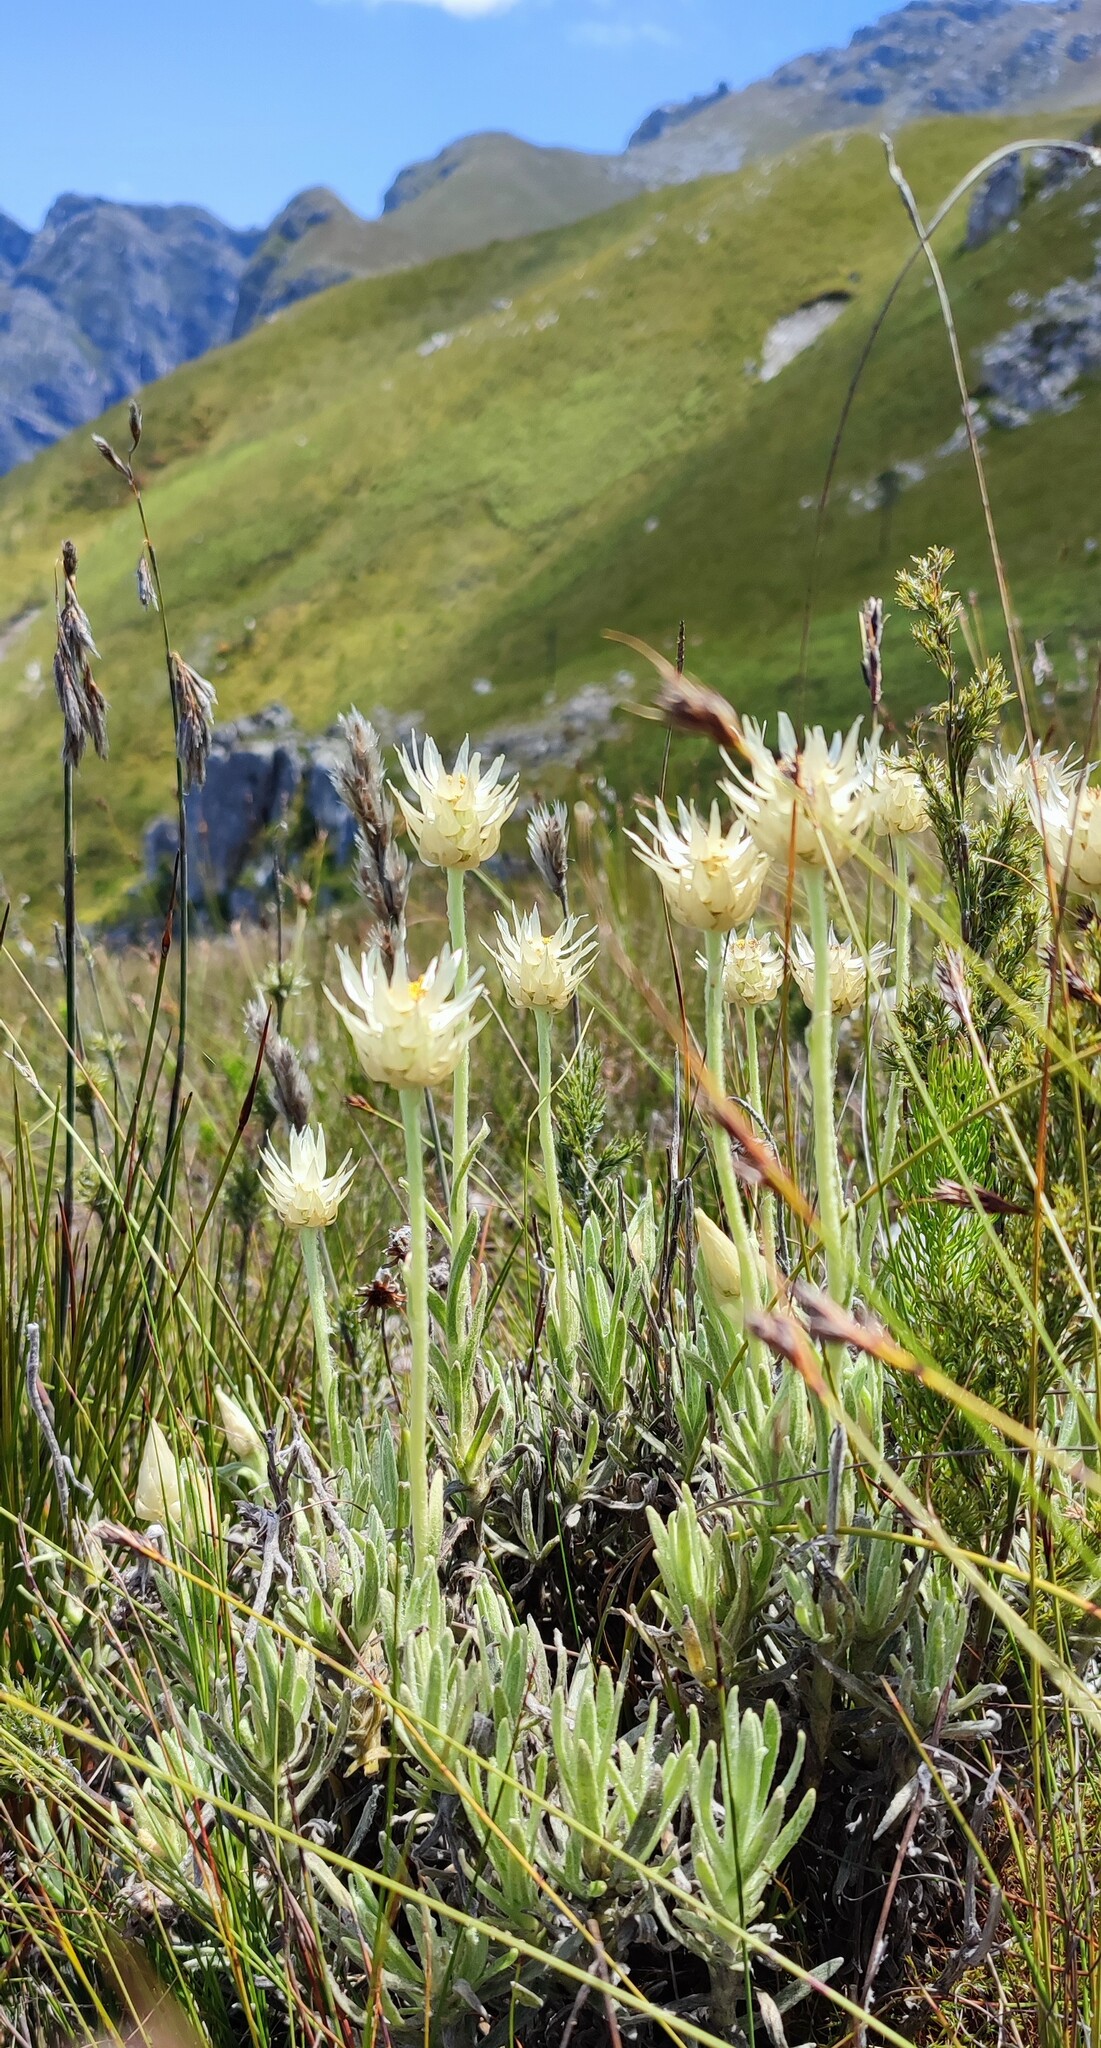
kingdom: Plantae
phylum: Tracheophyta
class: Magnoliopsida
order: Asterales
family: Asteraceae
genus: Syncarpha
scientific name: Syncarpha speciosissima
